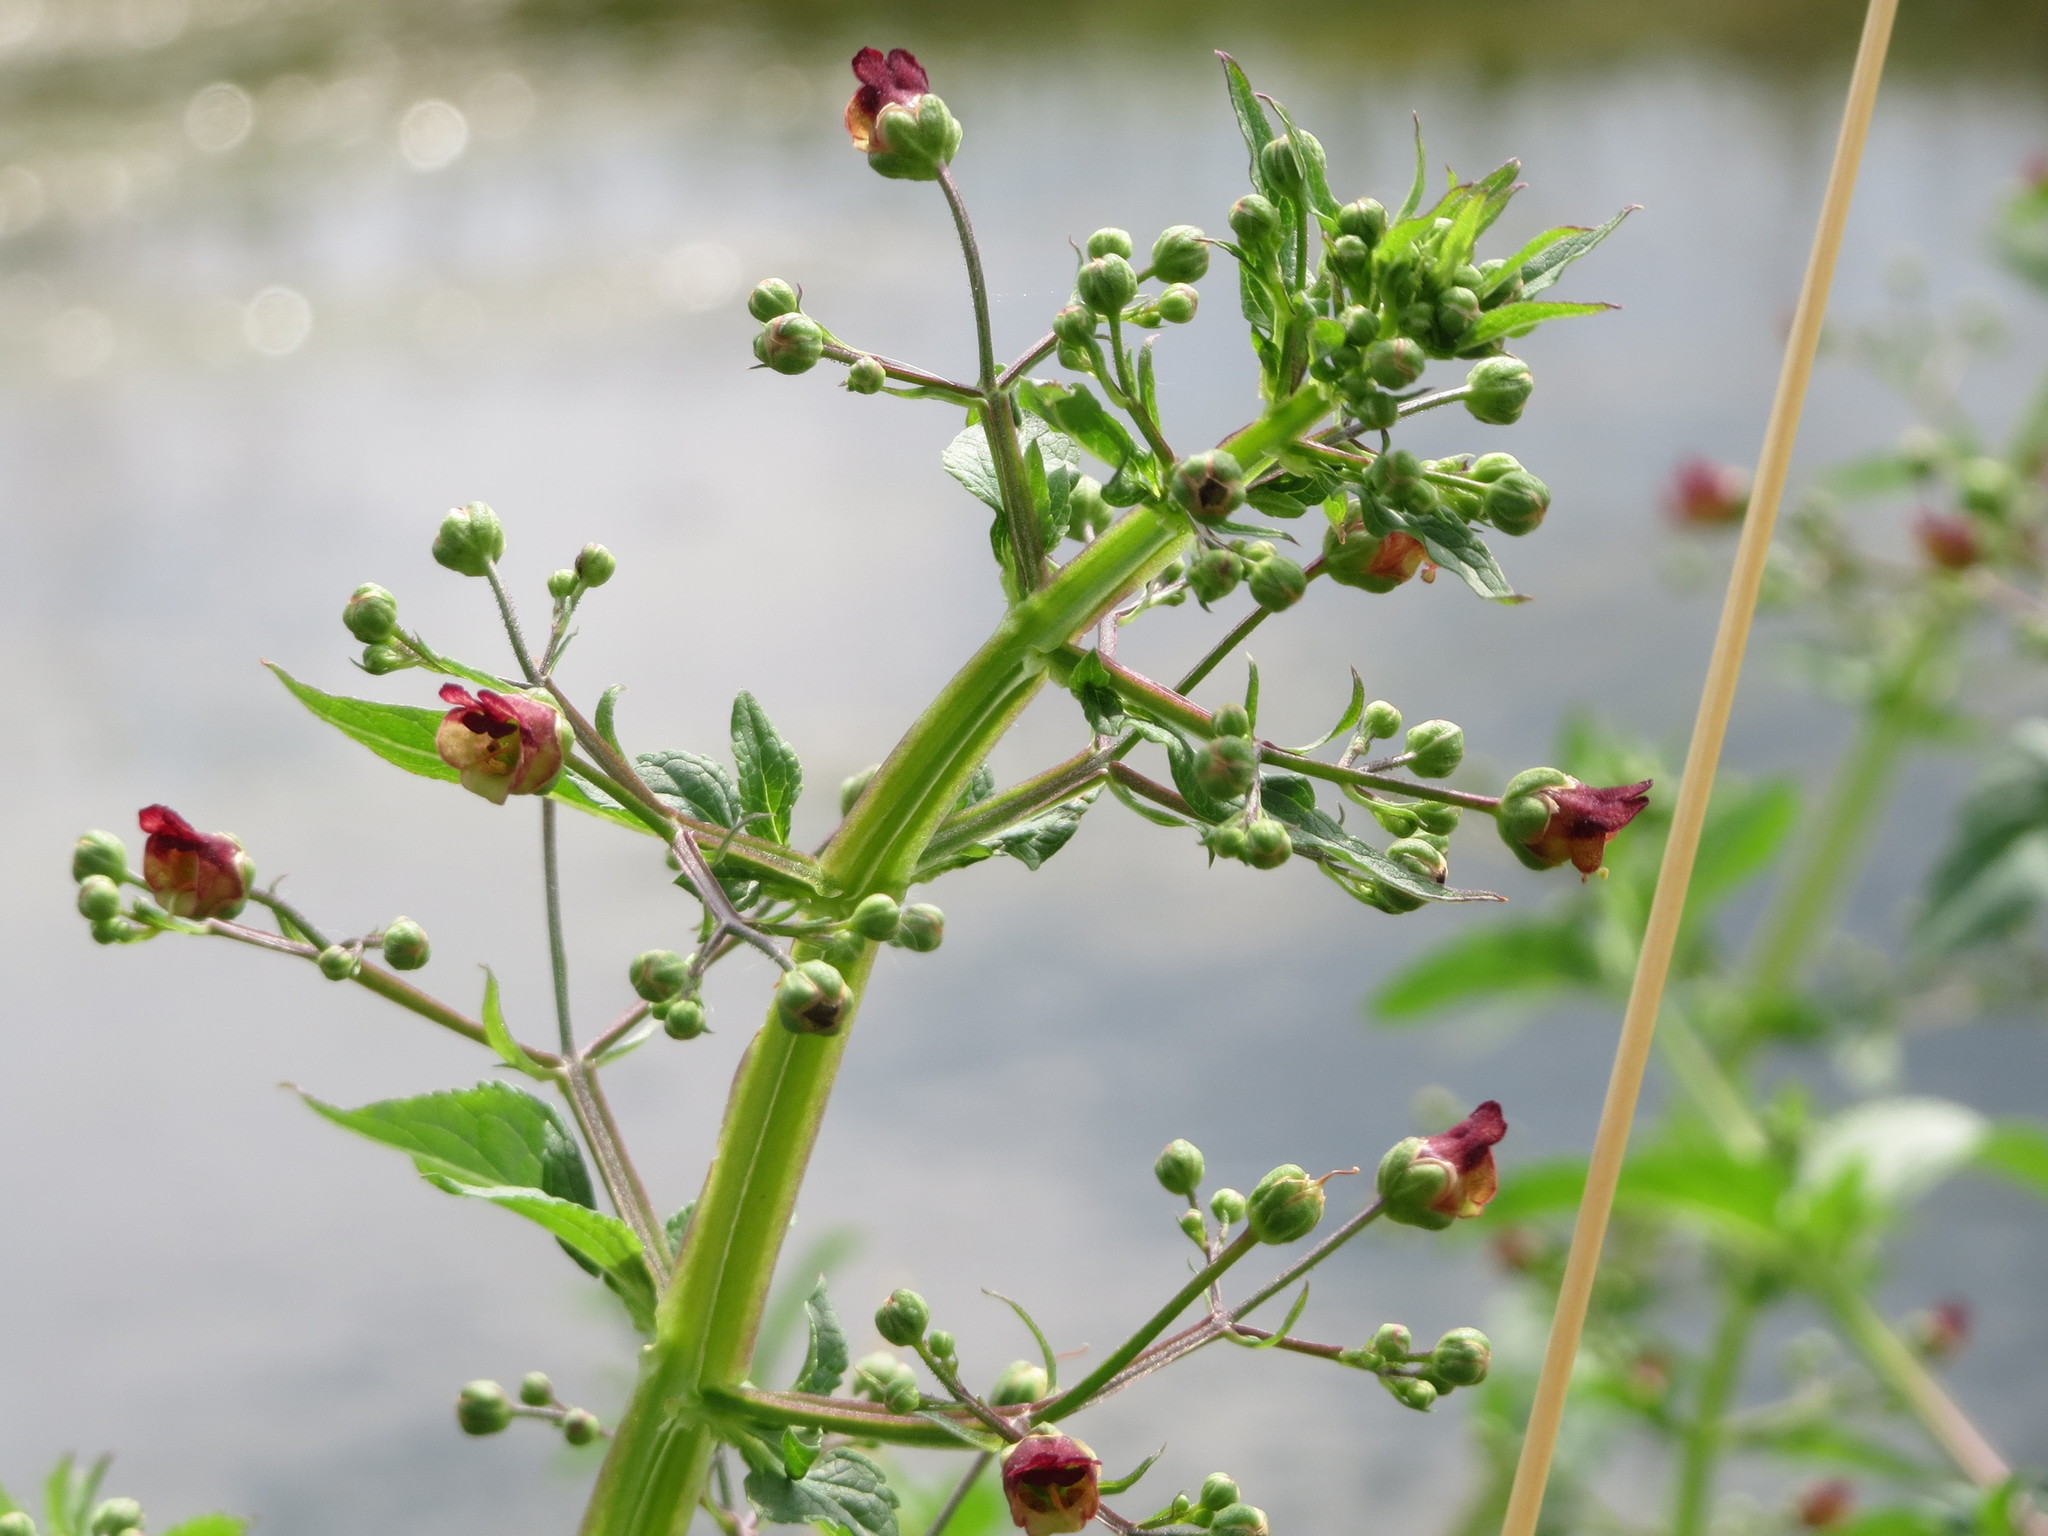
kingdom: Plantae
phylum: Tracheophyta
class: Magnoliopsida
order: Lamiales
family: Scrophulariaceae
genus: Scrophularia
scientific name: Scrophularia nodosa
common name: Common figwort
